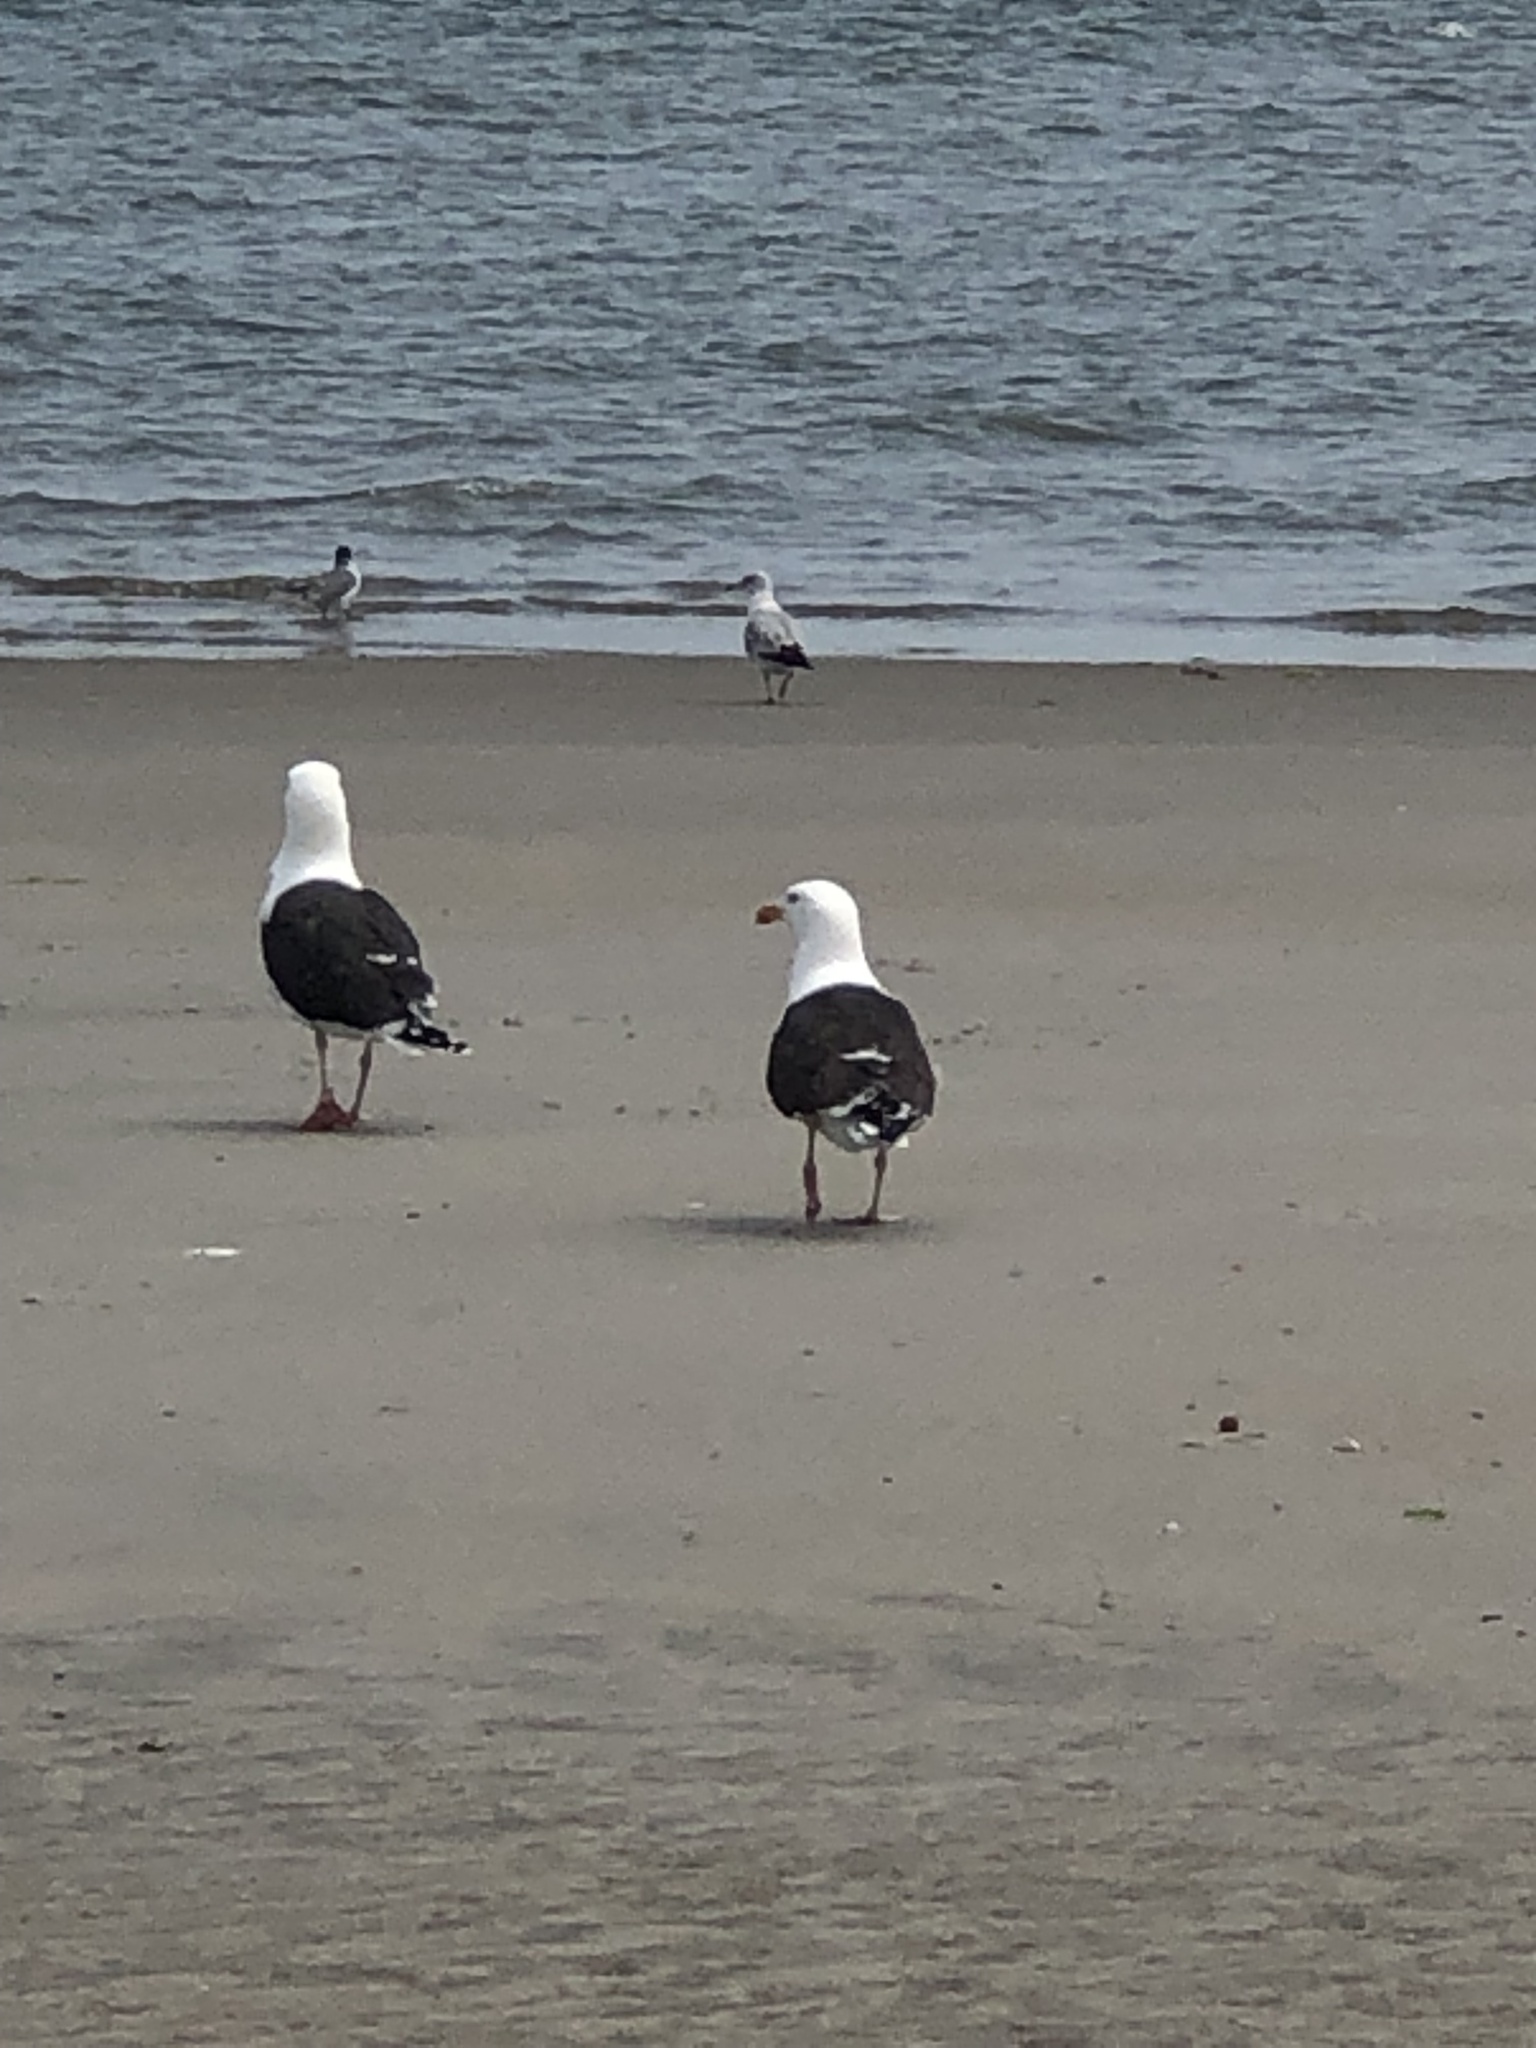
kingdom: Animalia
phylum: Chordata
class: Aves
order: Charadriiformes
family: Laridae
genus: Larus
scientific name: Larus marinus
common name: Great black-backed gull
